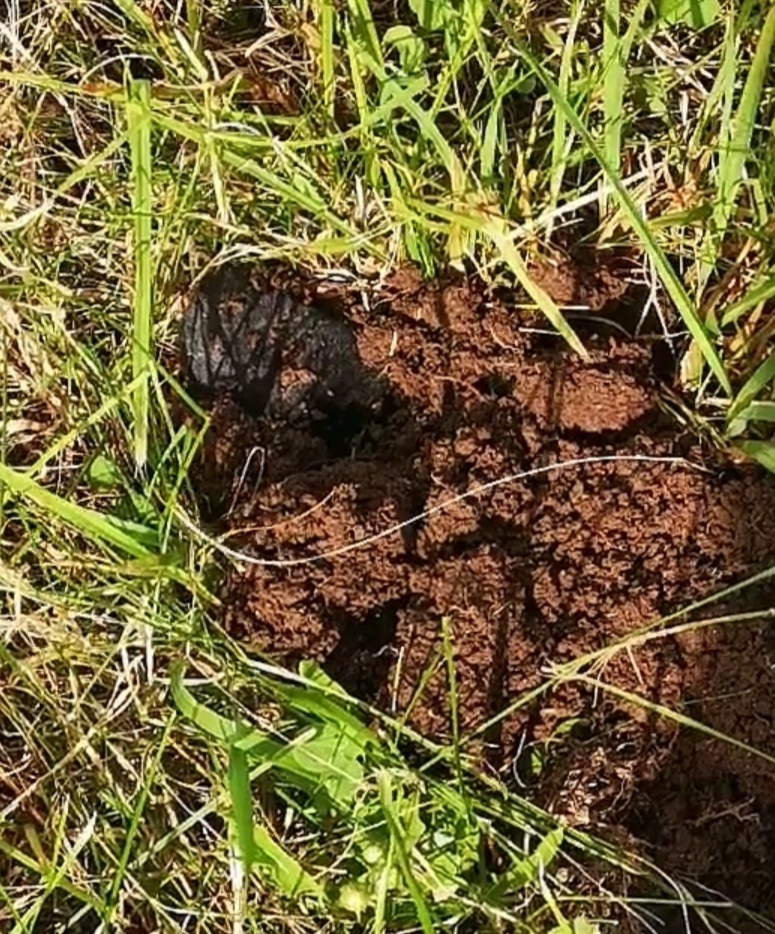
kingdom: Animalia
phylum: Chordata
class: Mammalia
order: Soricomorpha
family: Talpidae
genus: Talpa
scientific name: Talpa europaea
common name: European mole
